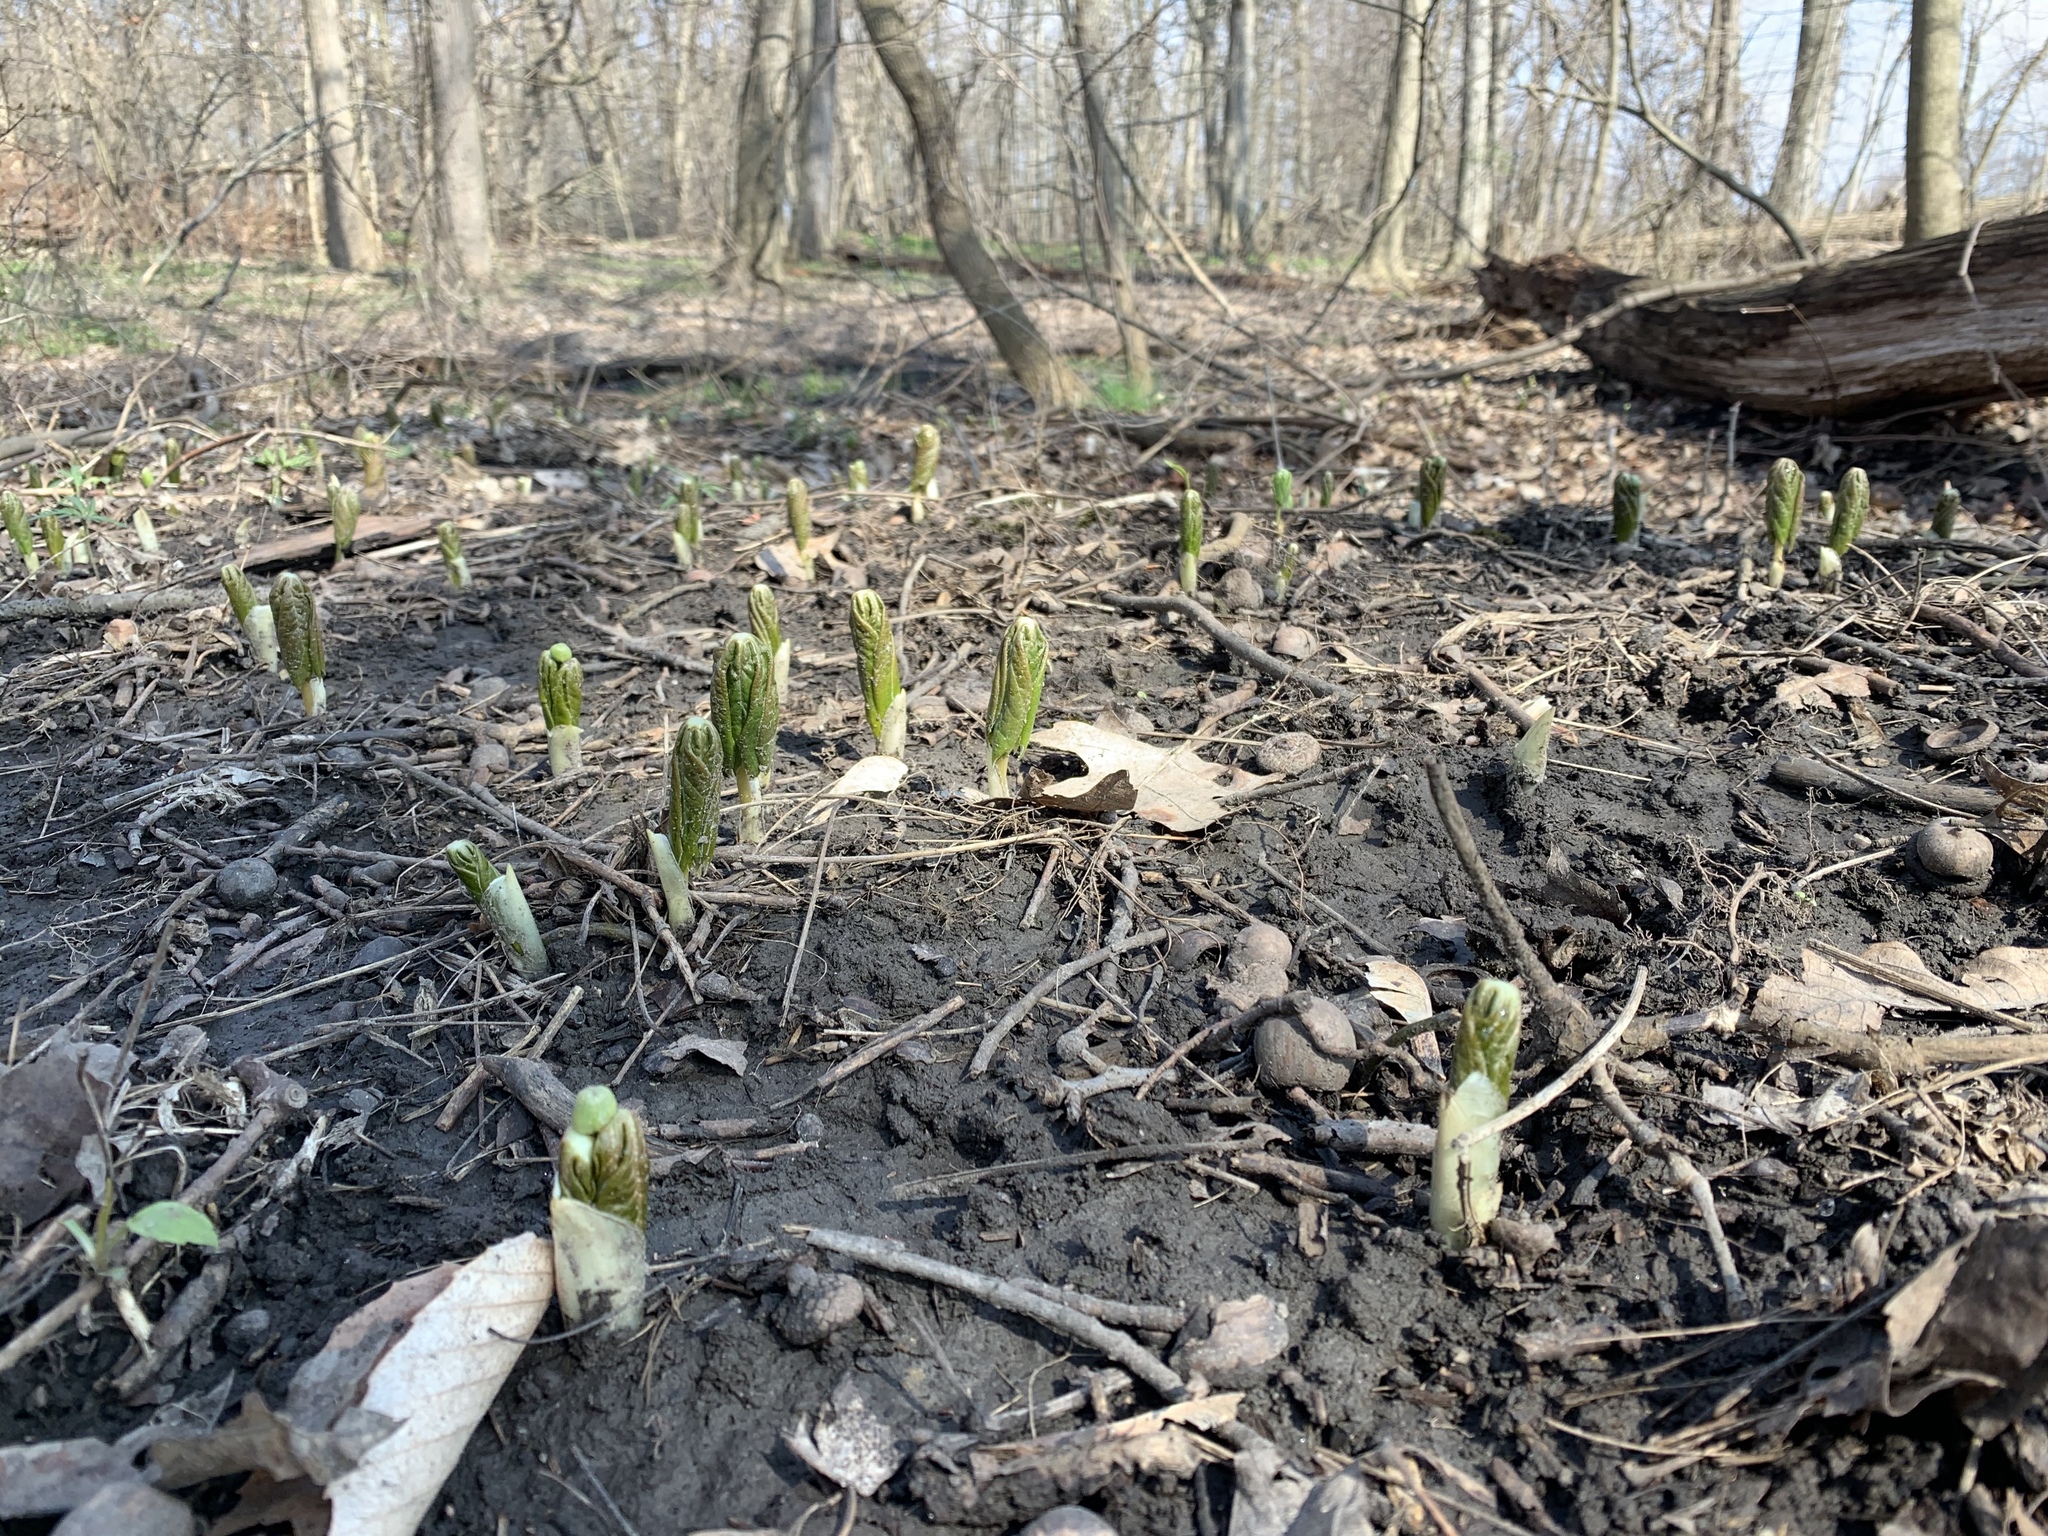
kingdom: Plantae
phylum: Tracheophyta
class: Magnoliopsida
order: Ranunculales
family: Berberidaceae
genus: Podophyllum
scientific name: Podophyllum peltatum
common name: Wild mandrake
